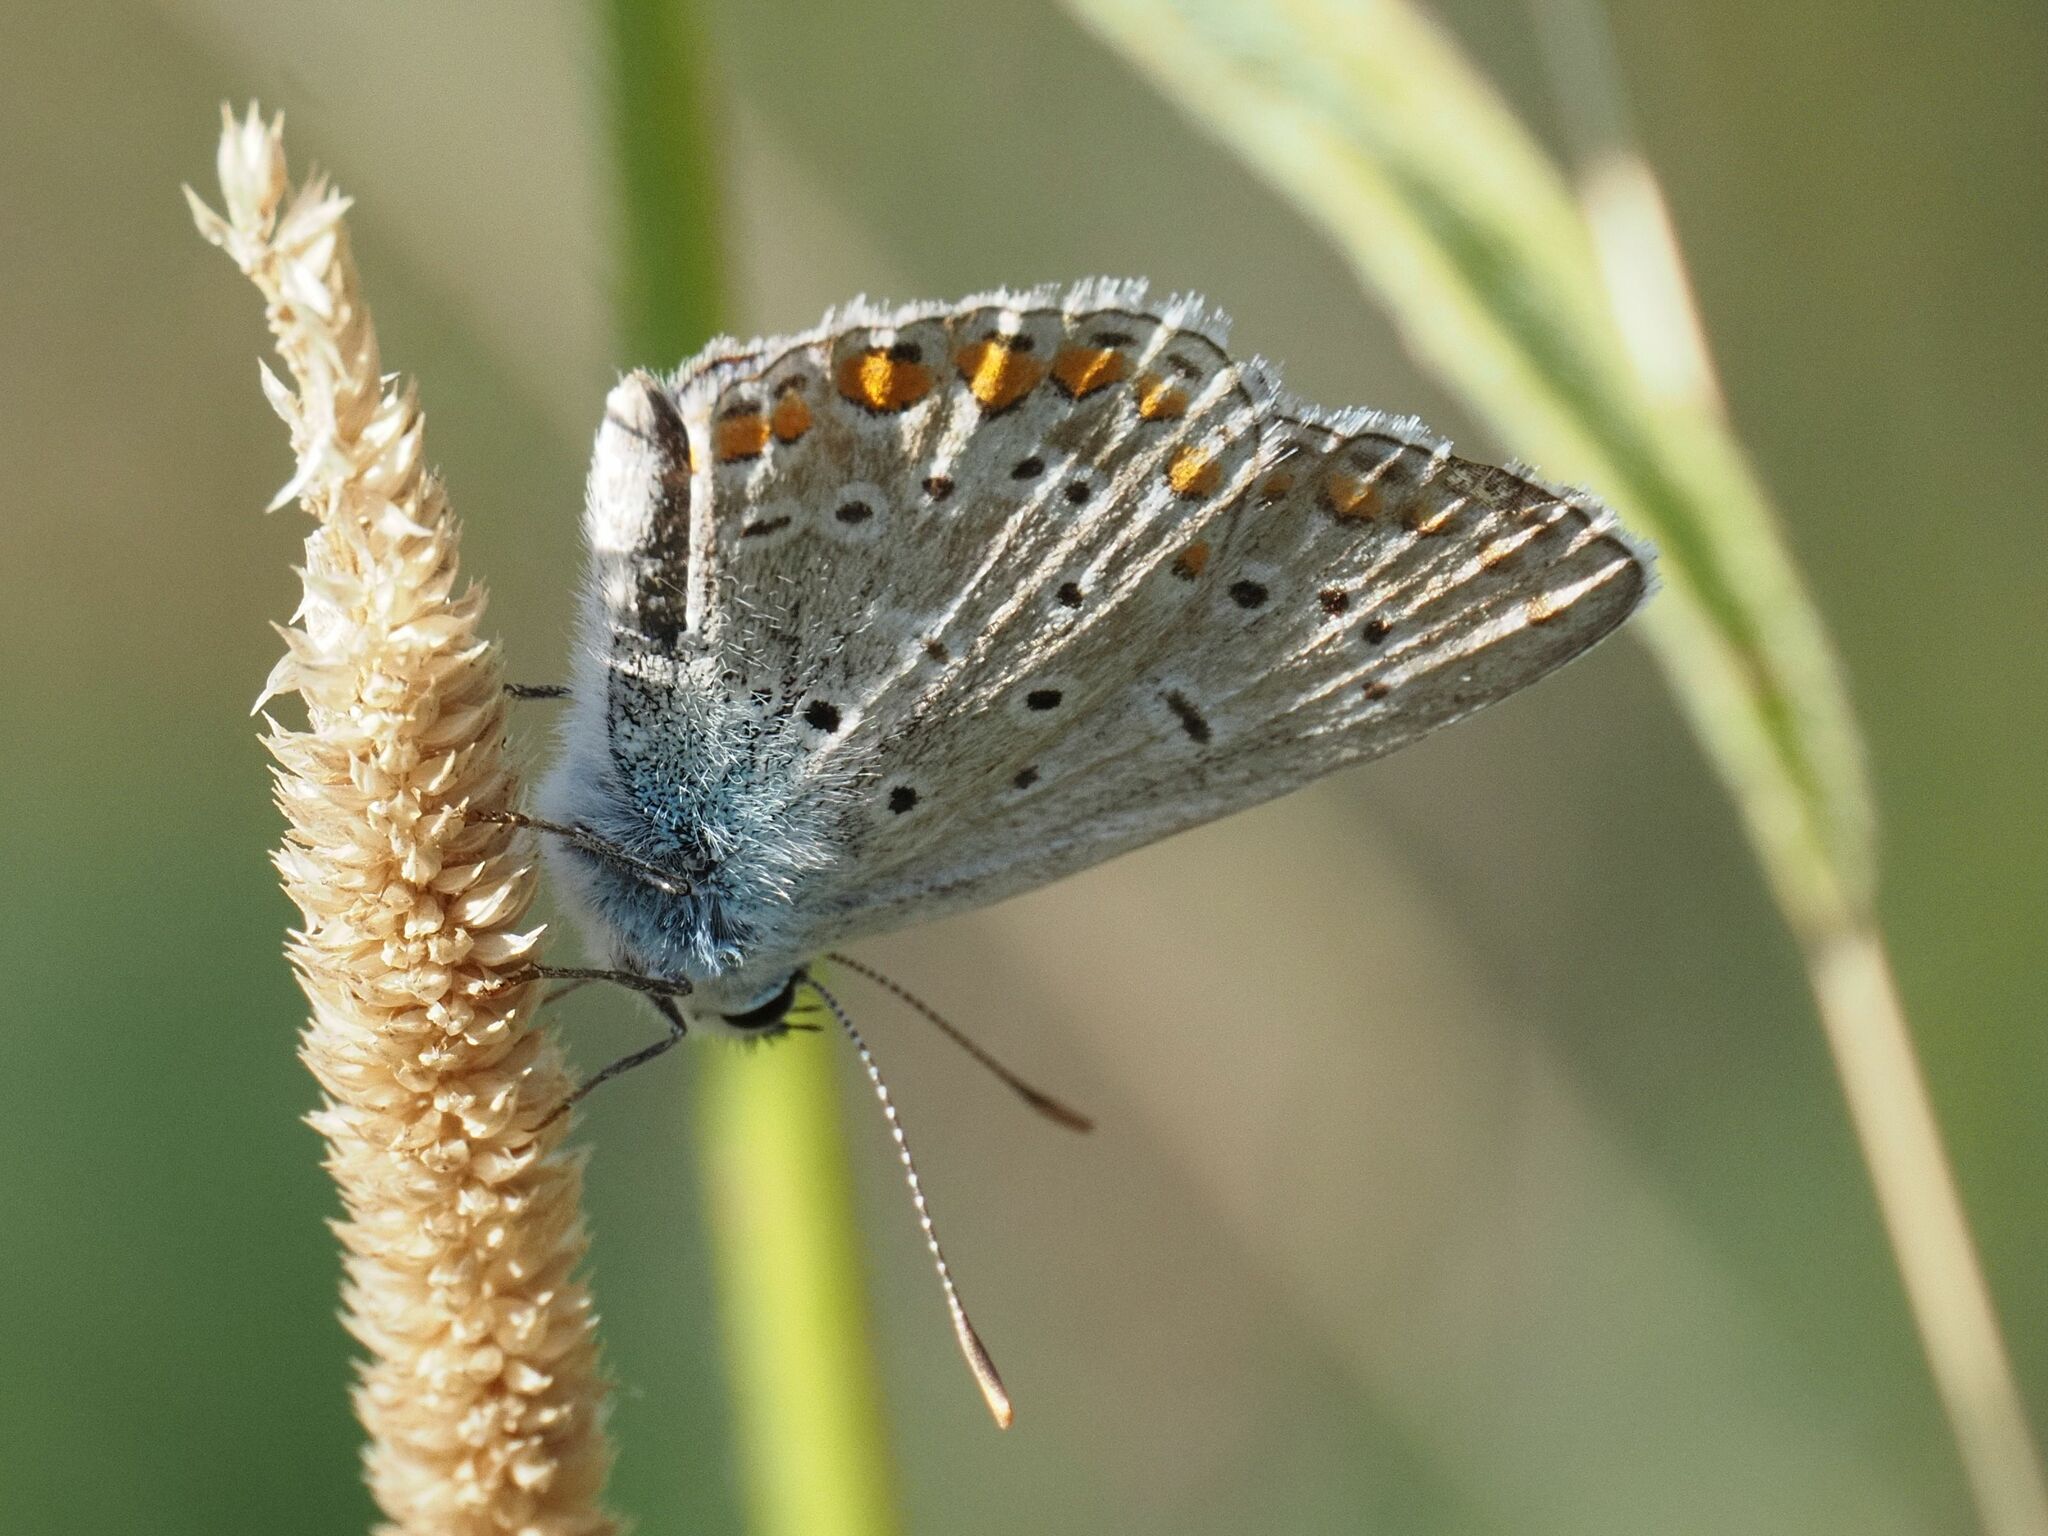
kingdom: Animalia
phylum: Arthropoda
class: Insecta
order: Lepidoptera
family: Lycaenidae
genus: Polyommatus
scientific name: Polyommatus icarus
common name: Common blue
